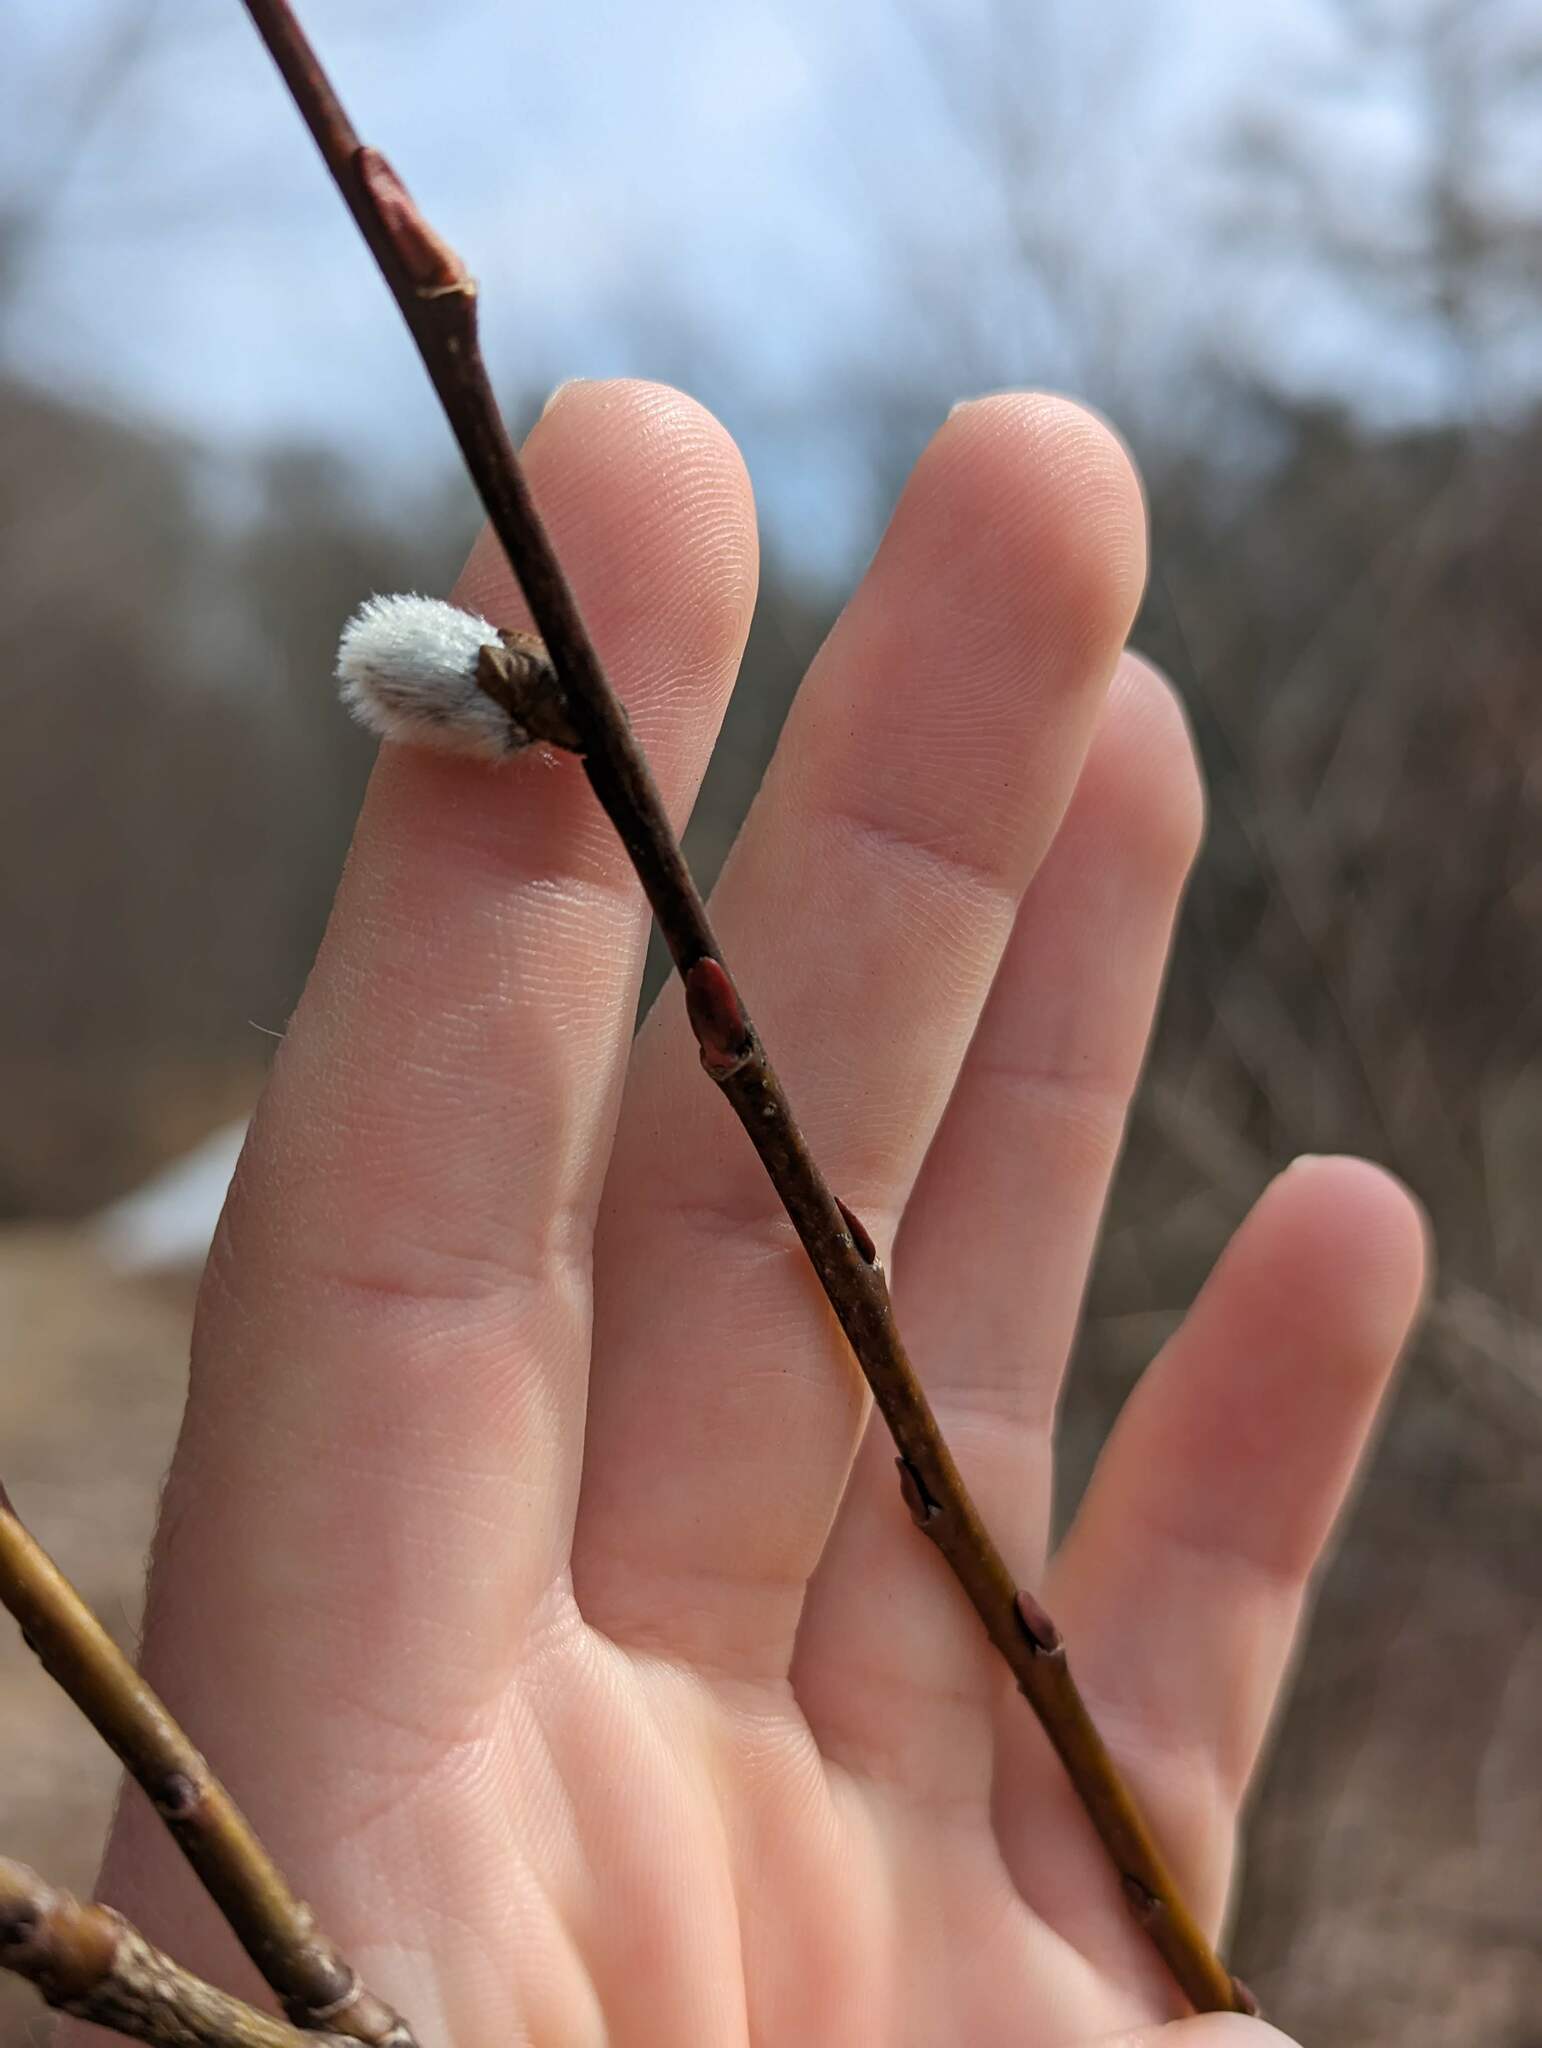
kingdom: Plantae
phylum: Tracheophyta
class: Magnoliopsida
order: Malpighiales
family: Salicaceae
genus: Salix
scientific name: Salix discolor
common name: Glaucous willow
